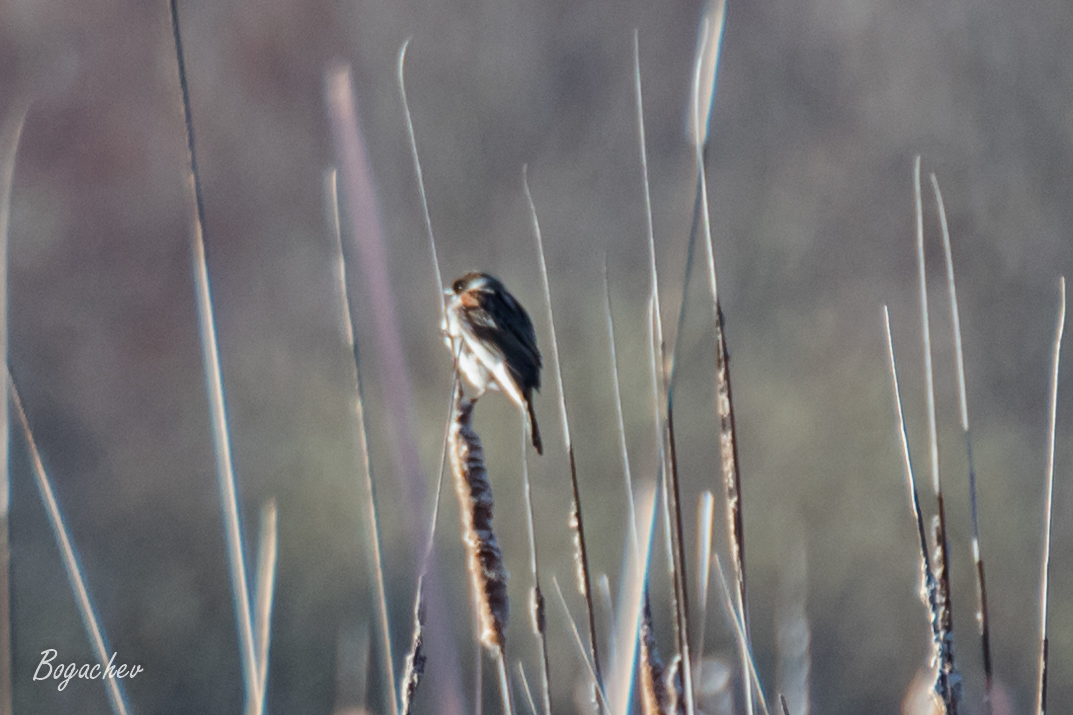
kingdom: Animalia
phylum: Chordata
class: Aves
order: Passeriformes
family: Emberizidae
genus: Emberiza
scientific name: Emberiza schoeniclus
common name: Reed bunting
